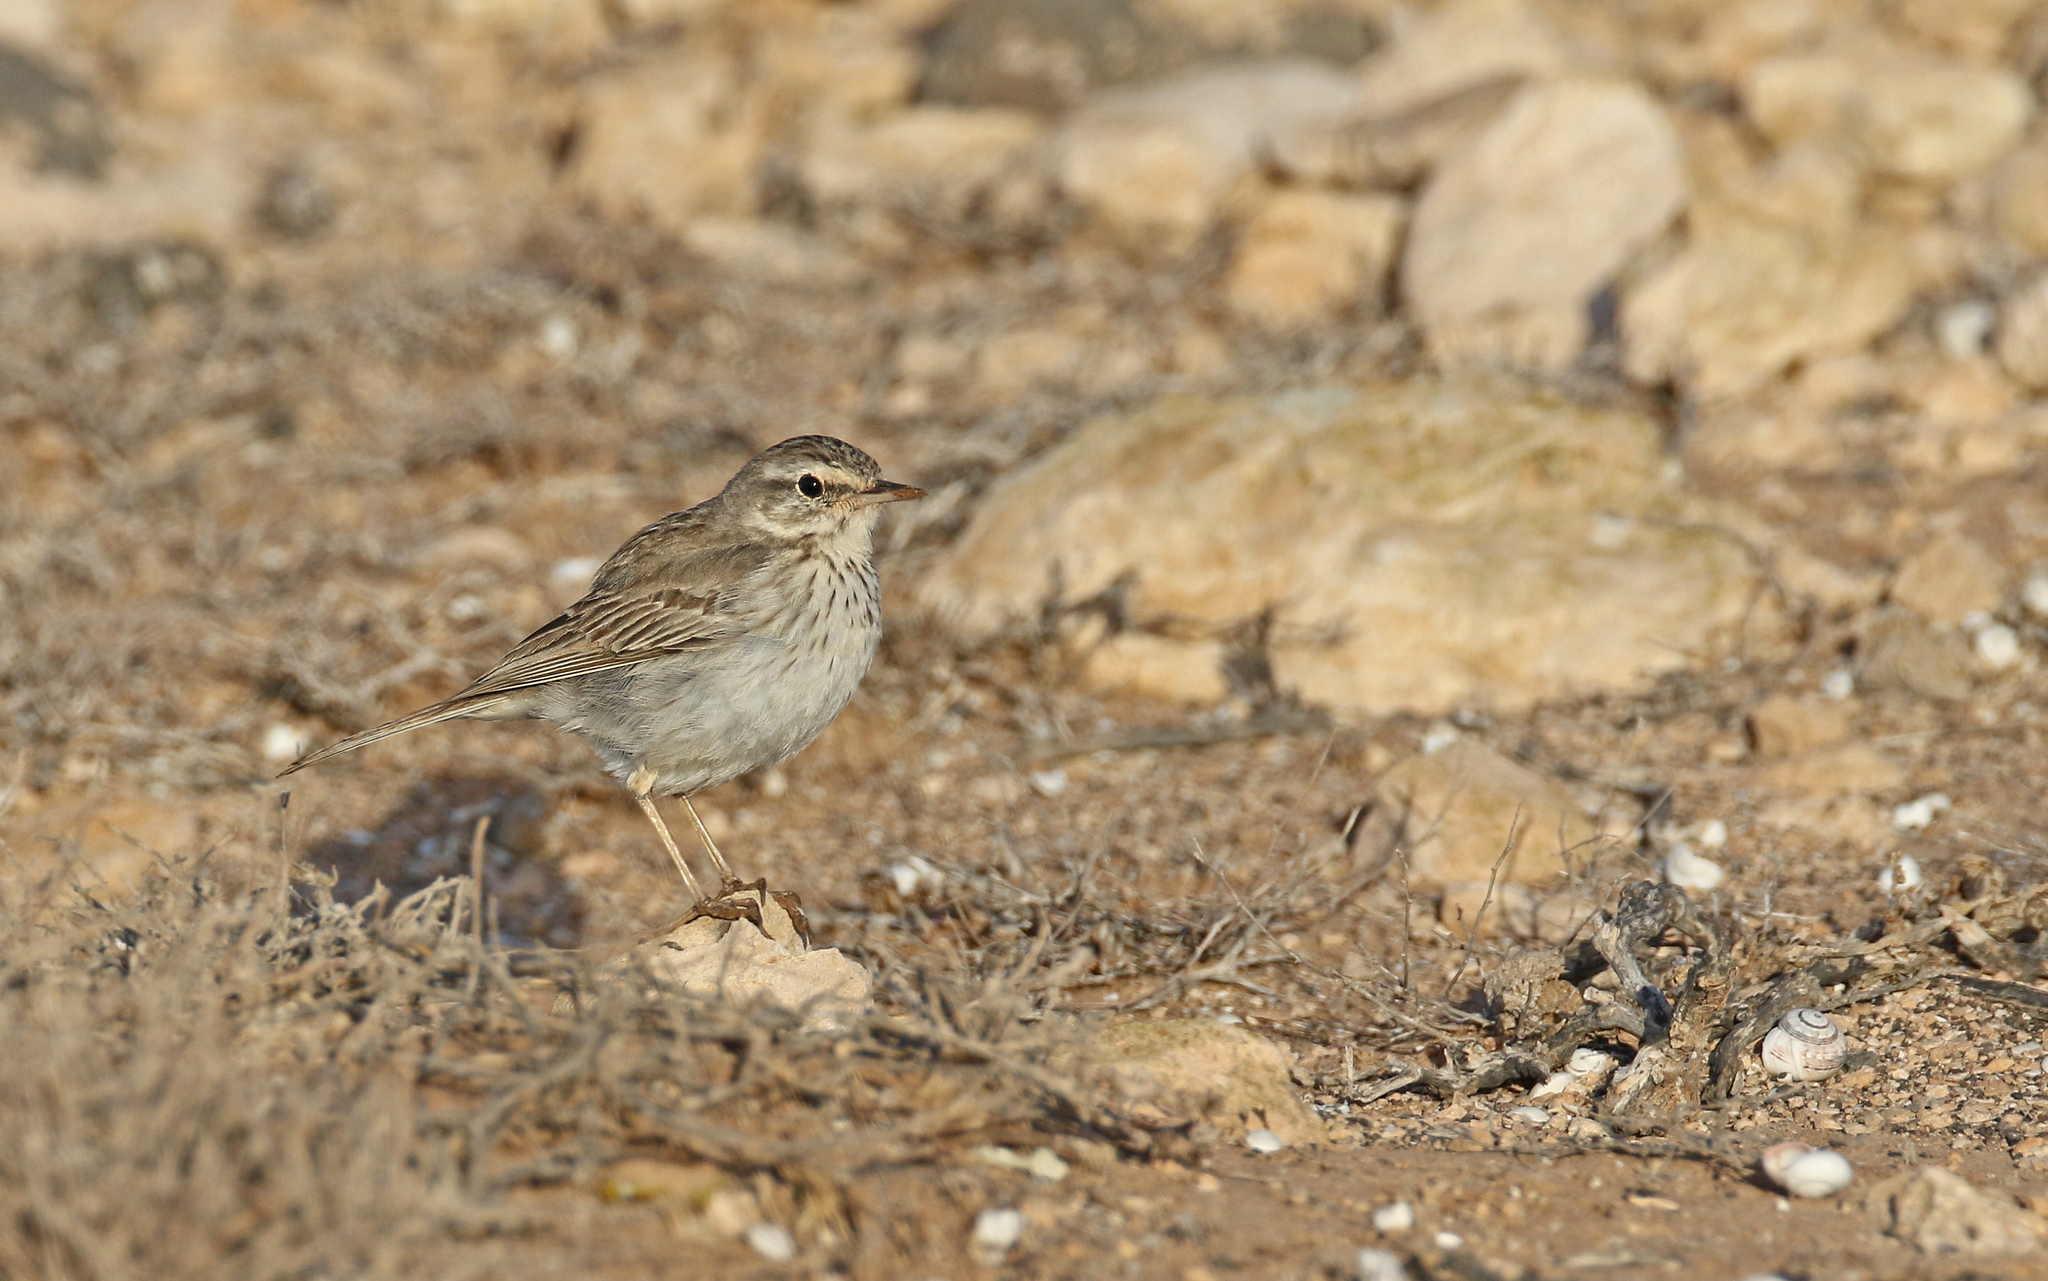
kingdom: Animalia
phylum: Chordata
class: Aves
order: Passeriformes
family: Motacillidae
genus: Anthus
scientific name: Anthus berthelotii
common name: Berthelot's pipit
